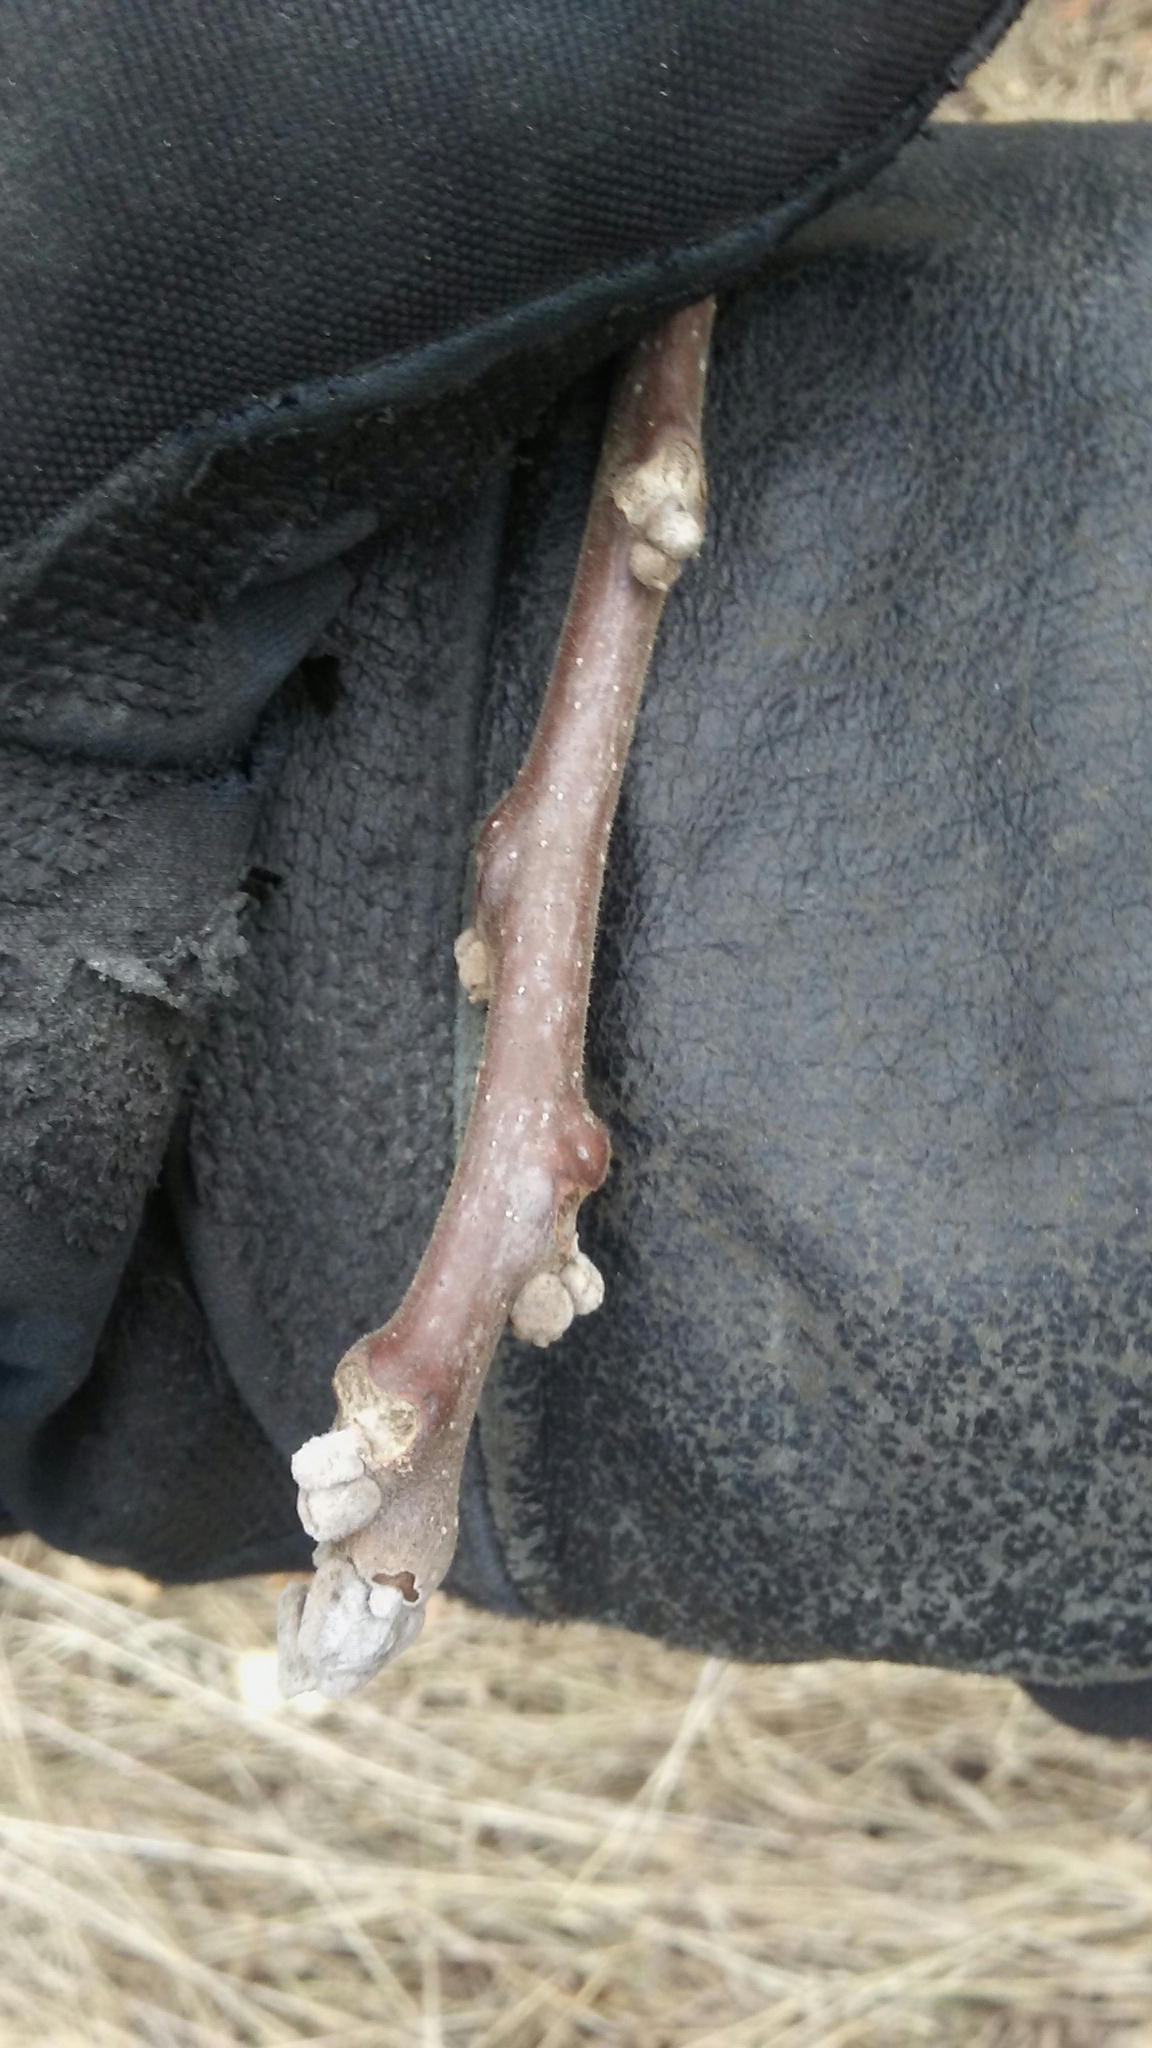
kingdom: Plantae
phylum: Tracheophyta
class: Magnoliopsida
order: Fagales
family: Juglandaceae
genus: Juglans
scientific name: Juglans nigra
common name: Black walnut
